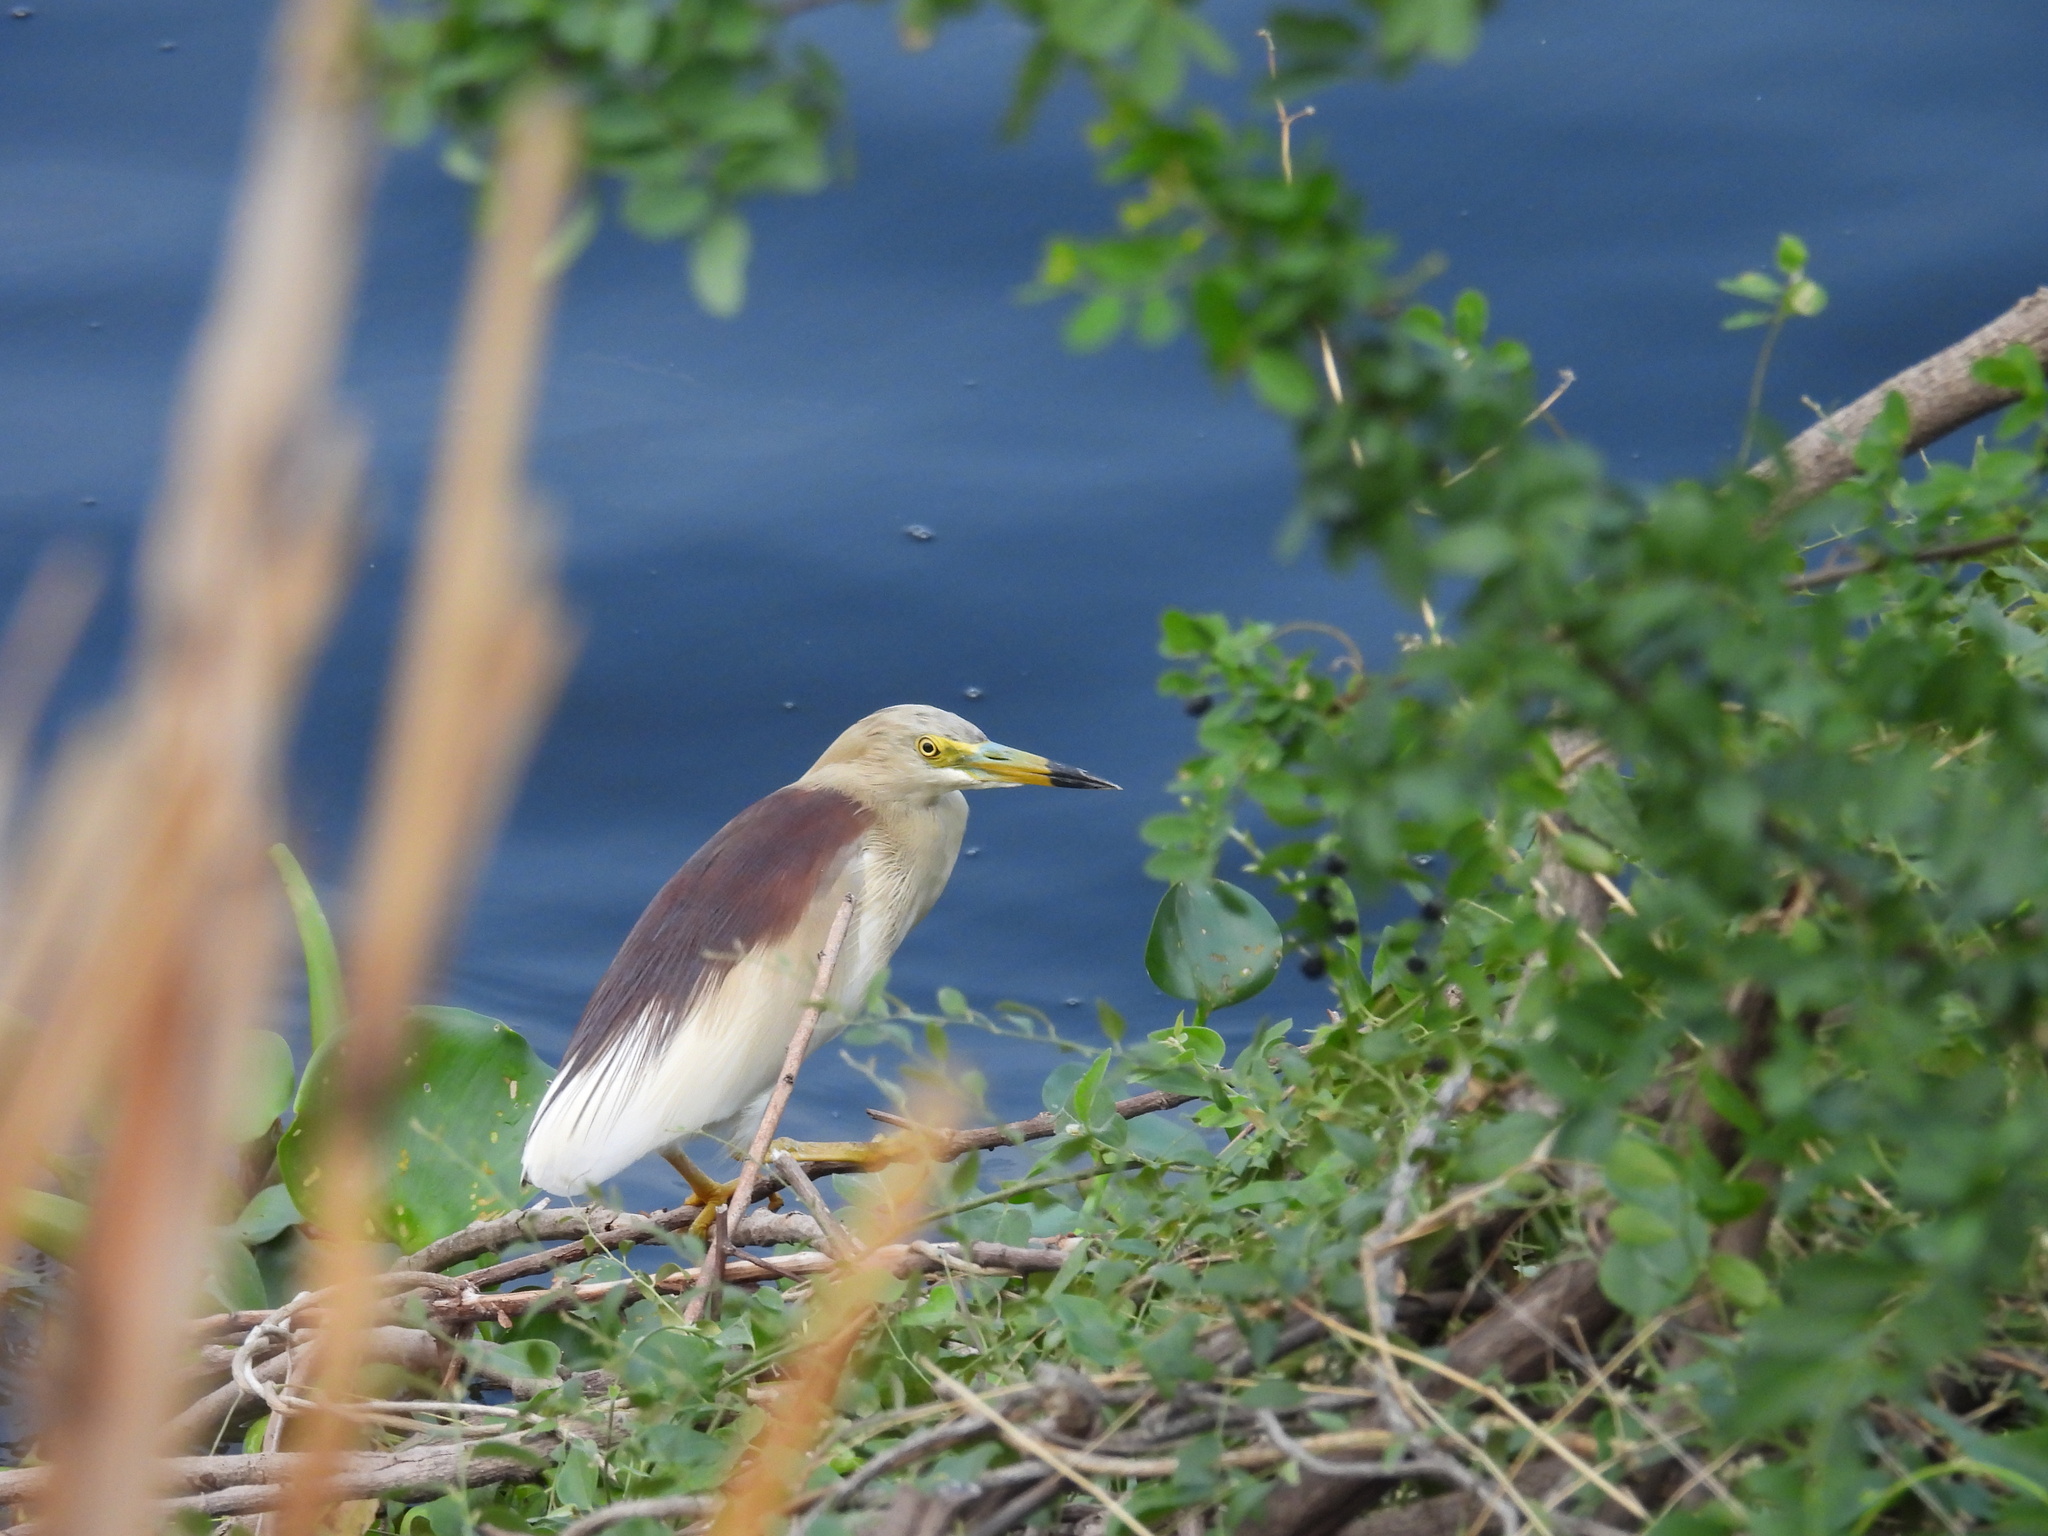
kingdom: Animalia
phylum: Chordata
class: Aves
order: Pelecaniformes
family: Ardeidae
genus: Ardeola
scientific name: Ardeola grayii
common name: Indian pond heron
